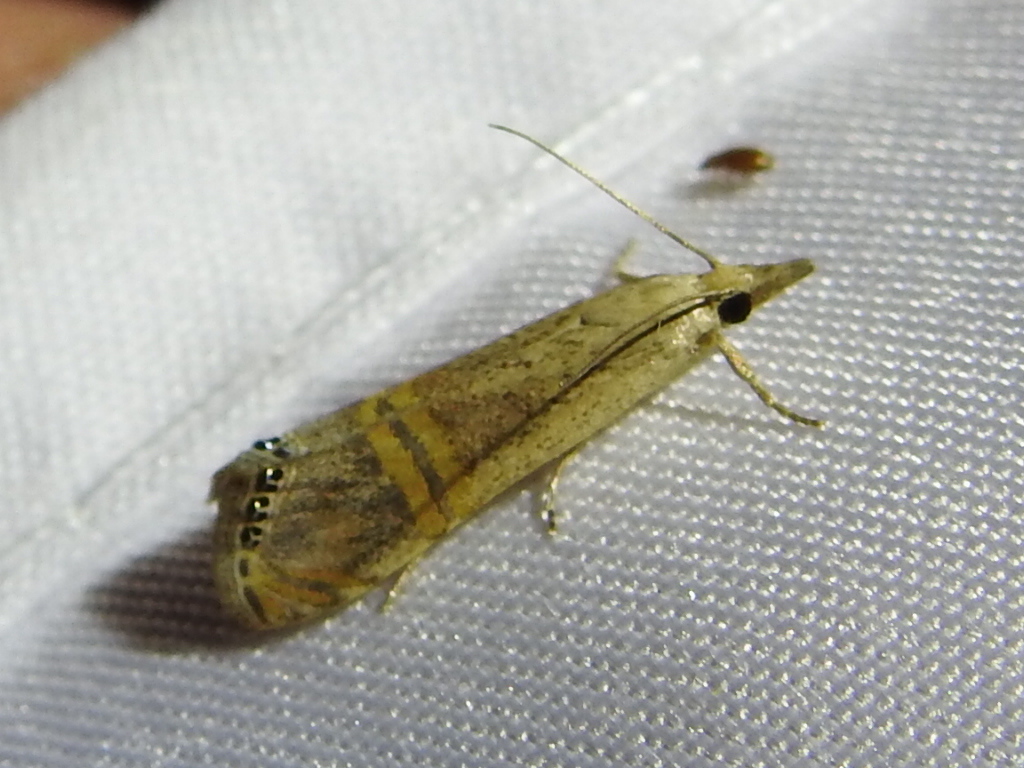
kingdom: Animalia
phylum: Arthropoda
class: Insecta
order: Lepidoptera
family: Crambidae
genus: Euchromius
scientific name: Euchromius ocellea
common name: Necklace veneer moth
